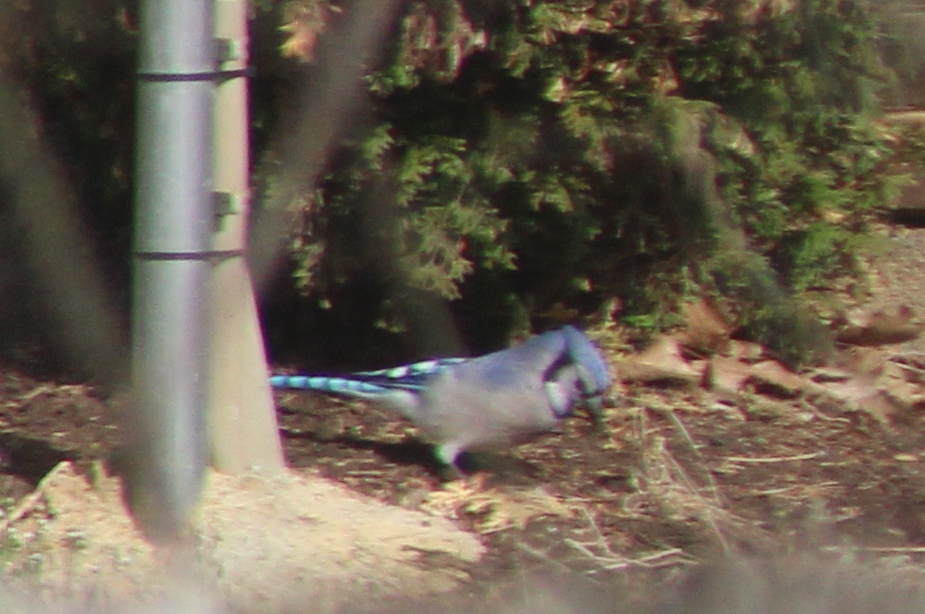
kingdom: Animalia
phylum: Chordata
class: Aves
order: Passeriformes
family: Corvidae
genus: Cyanocitta
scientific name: Cyanocitta cristata
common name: Blue jay
